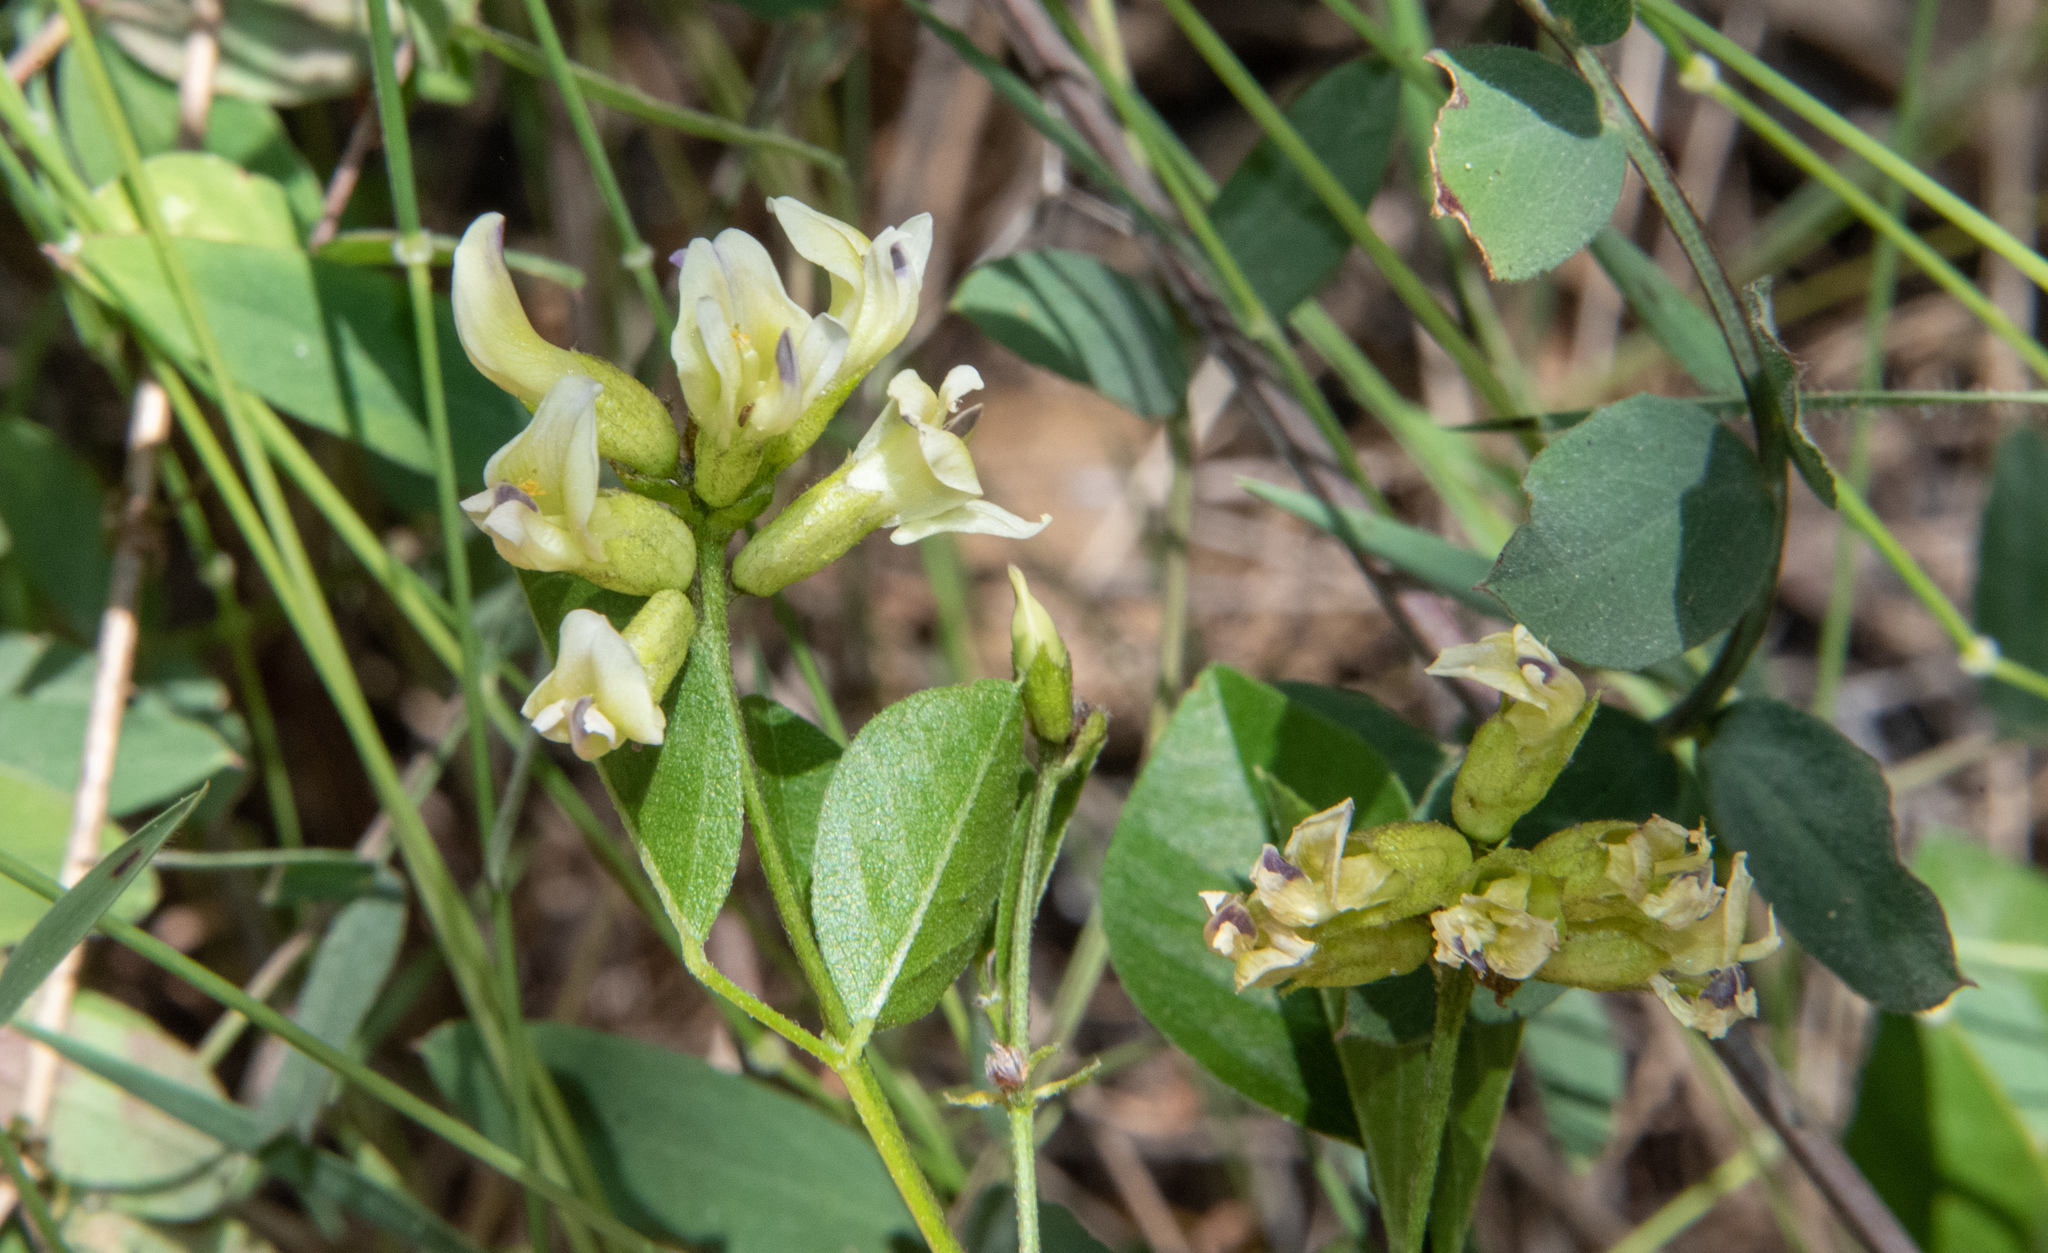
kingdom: Plantae
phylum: Tracheophyta
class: Magnoliopsida
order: Fabales
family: Fabaceae
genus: Rupertia
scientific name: Rupertia physodes
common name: California-tea
